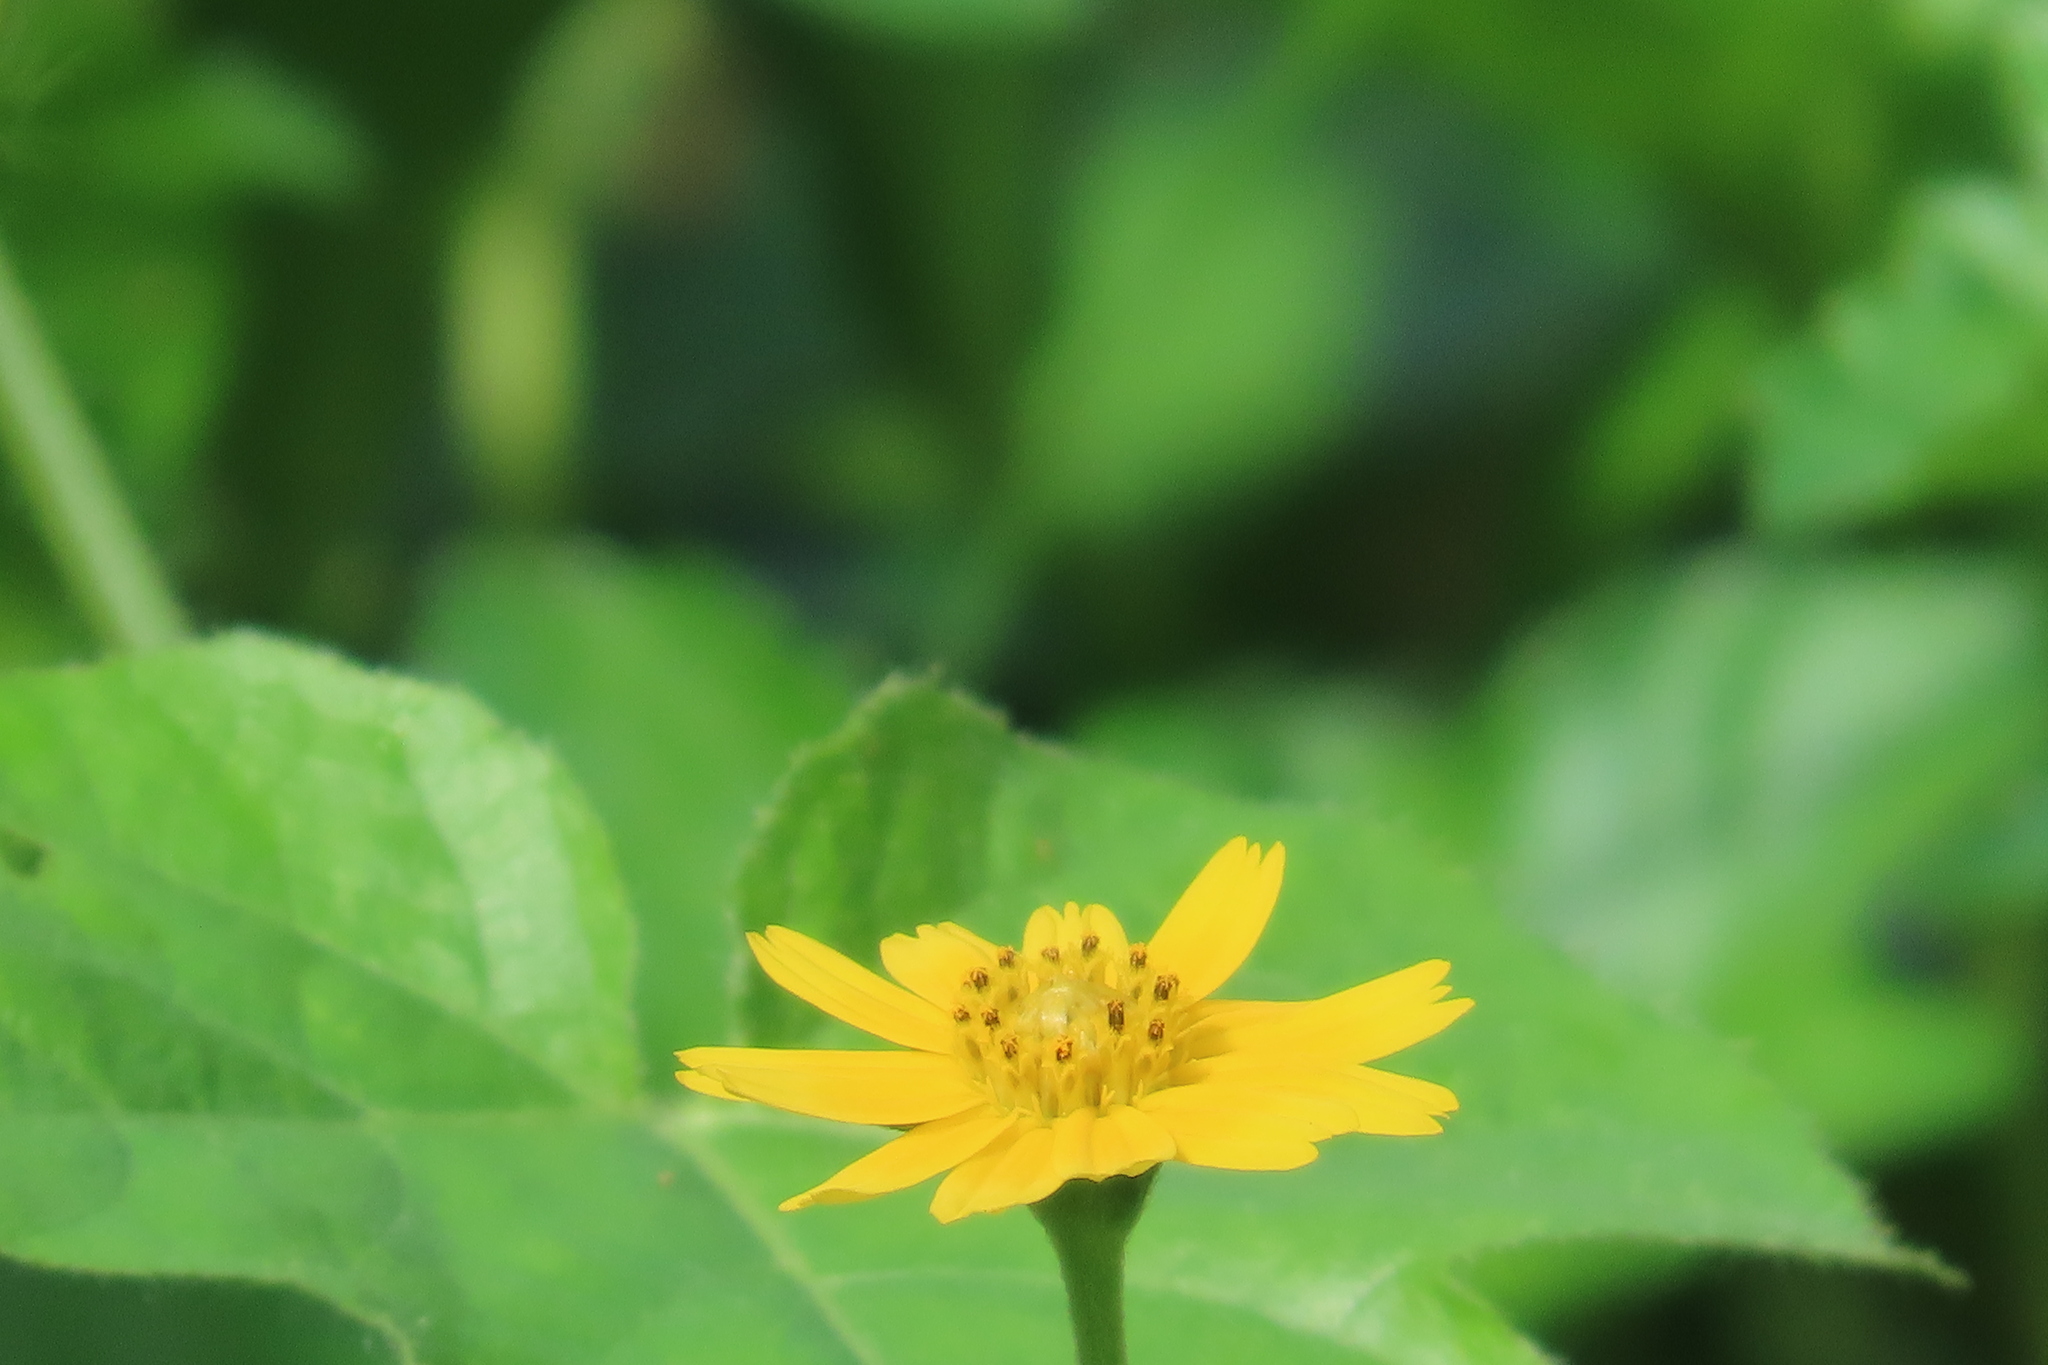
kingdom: Plantae
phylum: Tracheophyta
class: Magnoliopsida
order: Asterales
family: Asteraceae
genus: Sphagneticola
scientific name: Sphagneticola trilobata
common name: Bay biscayne creeping-oxeye
